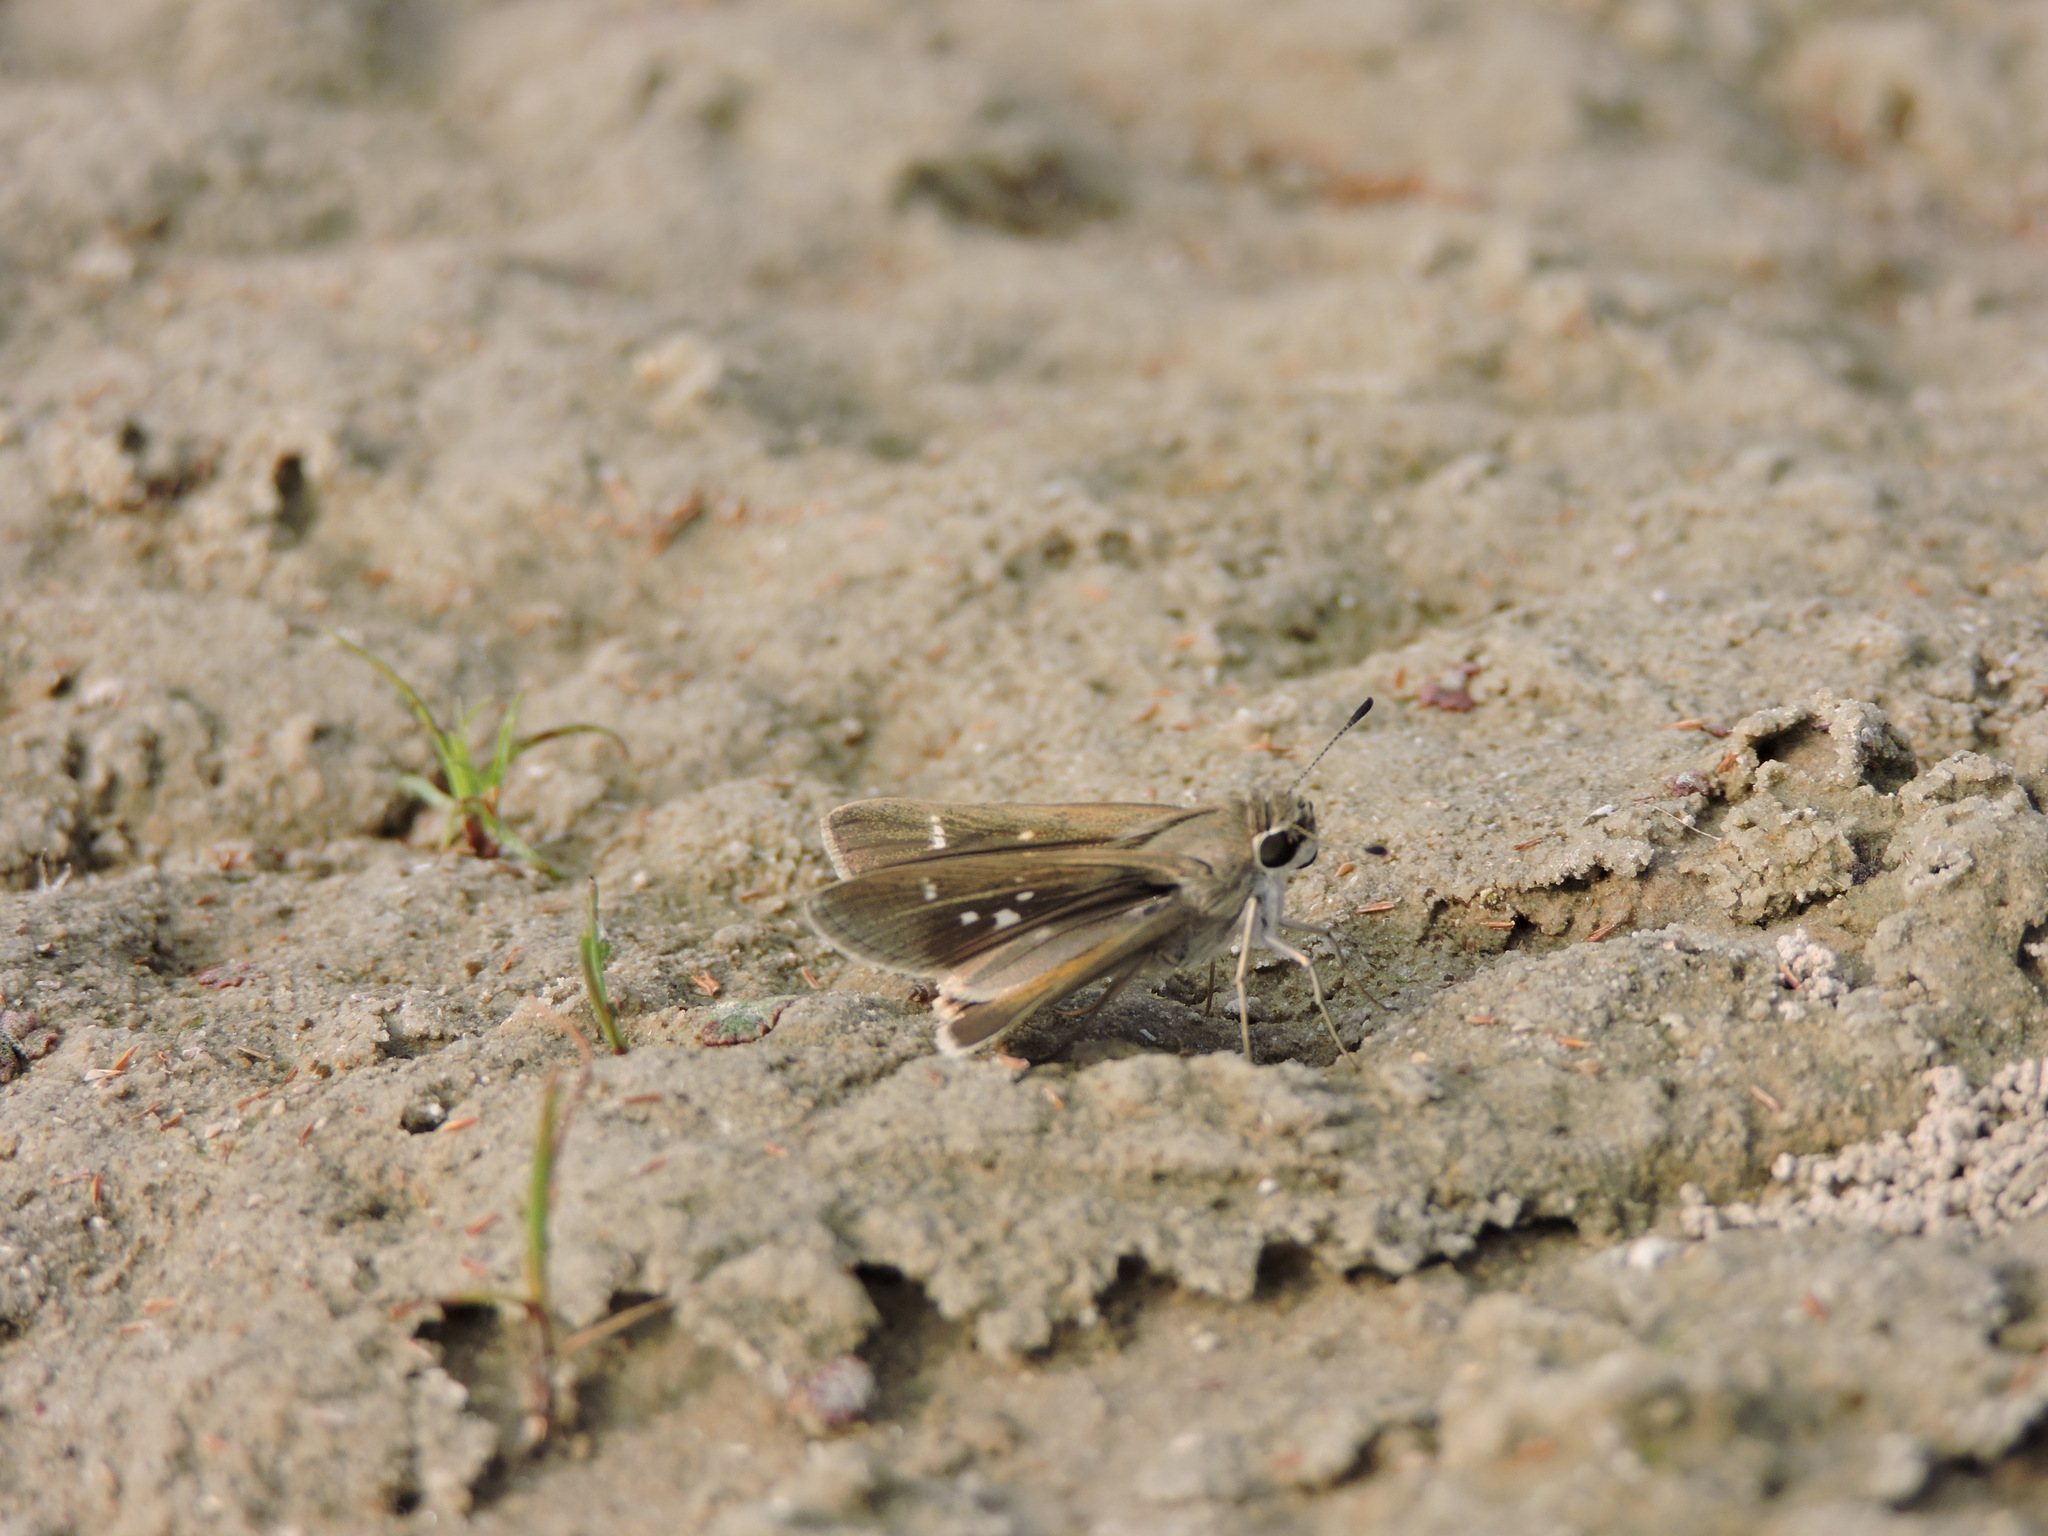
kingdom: Animalia
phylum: Arthropoda
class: Insecta
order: Lepidoptera
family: Hesperiidae
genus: Lerodea
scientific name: Lerodea eufala
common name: Eufala skipper
